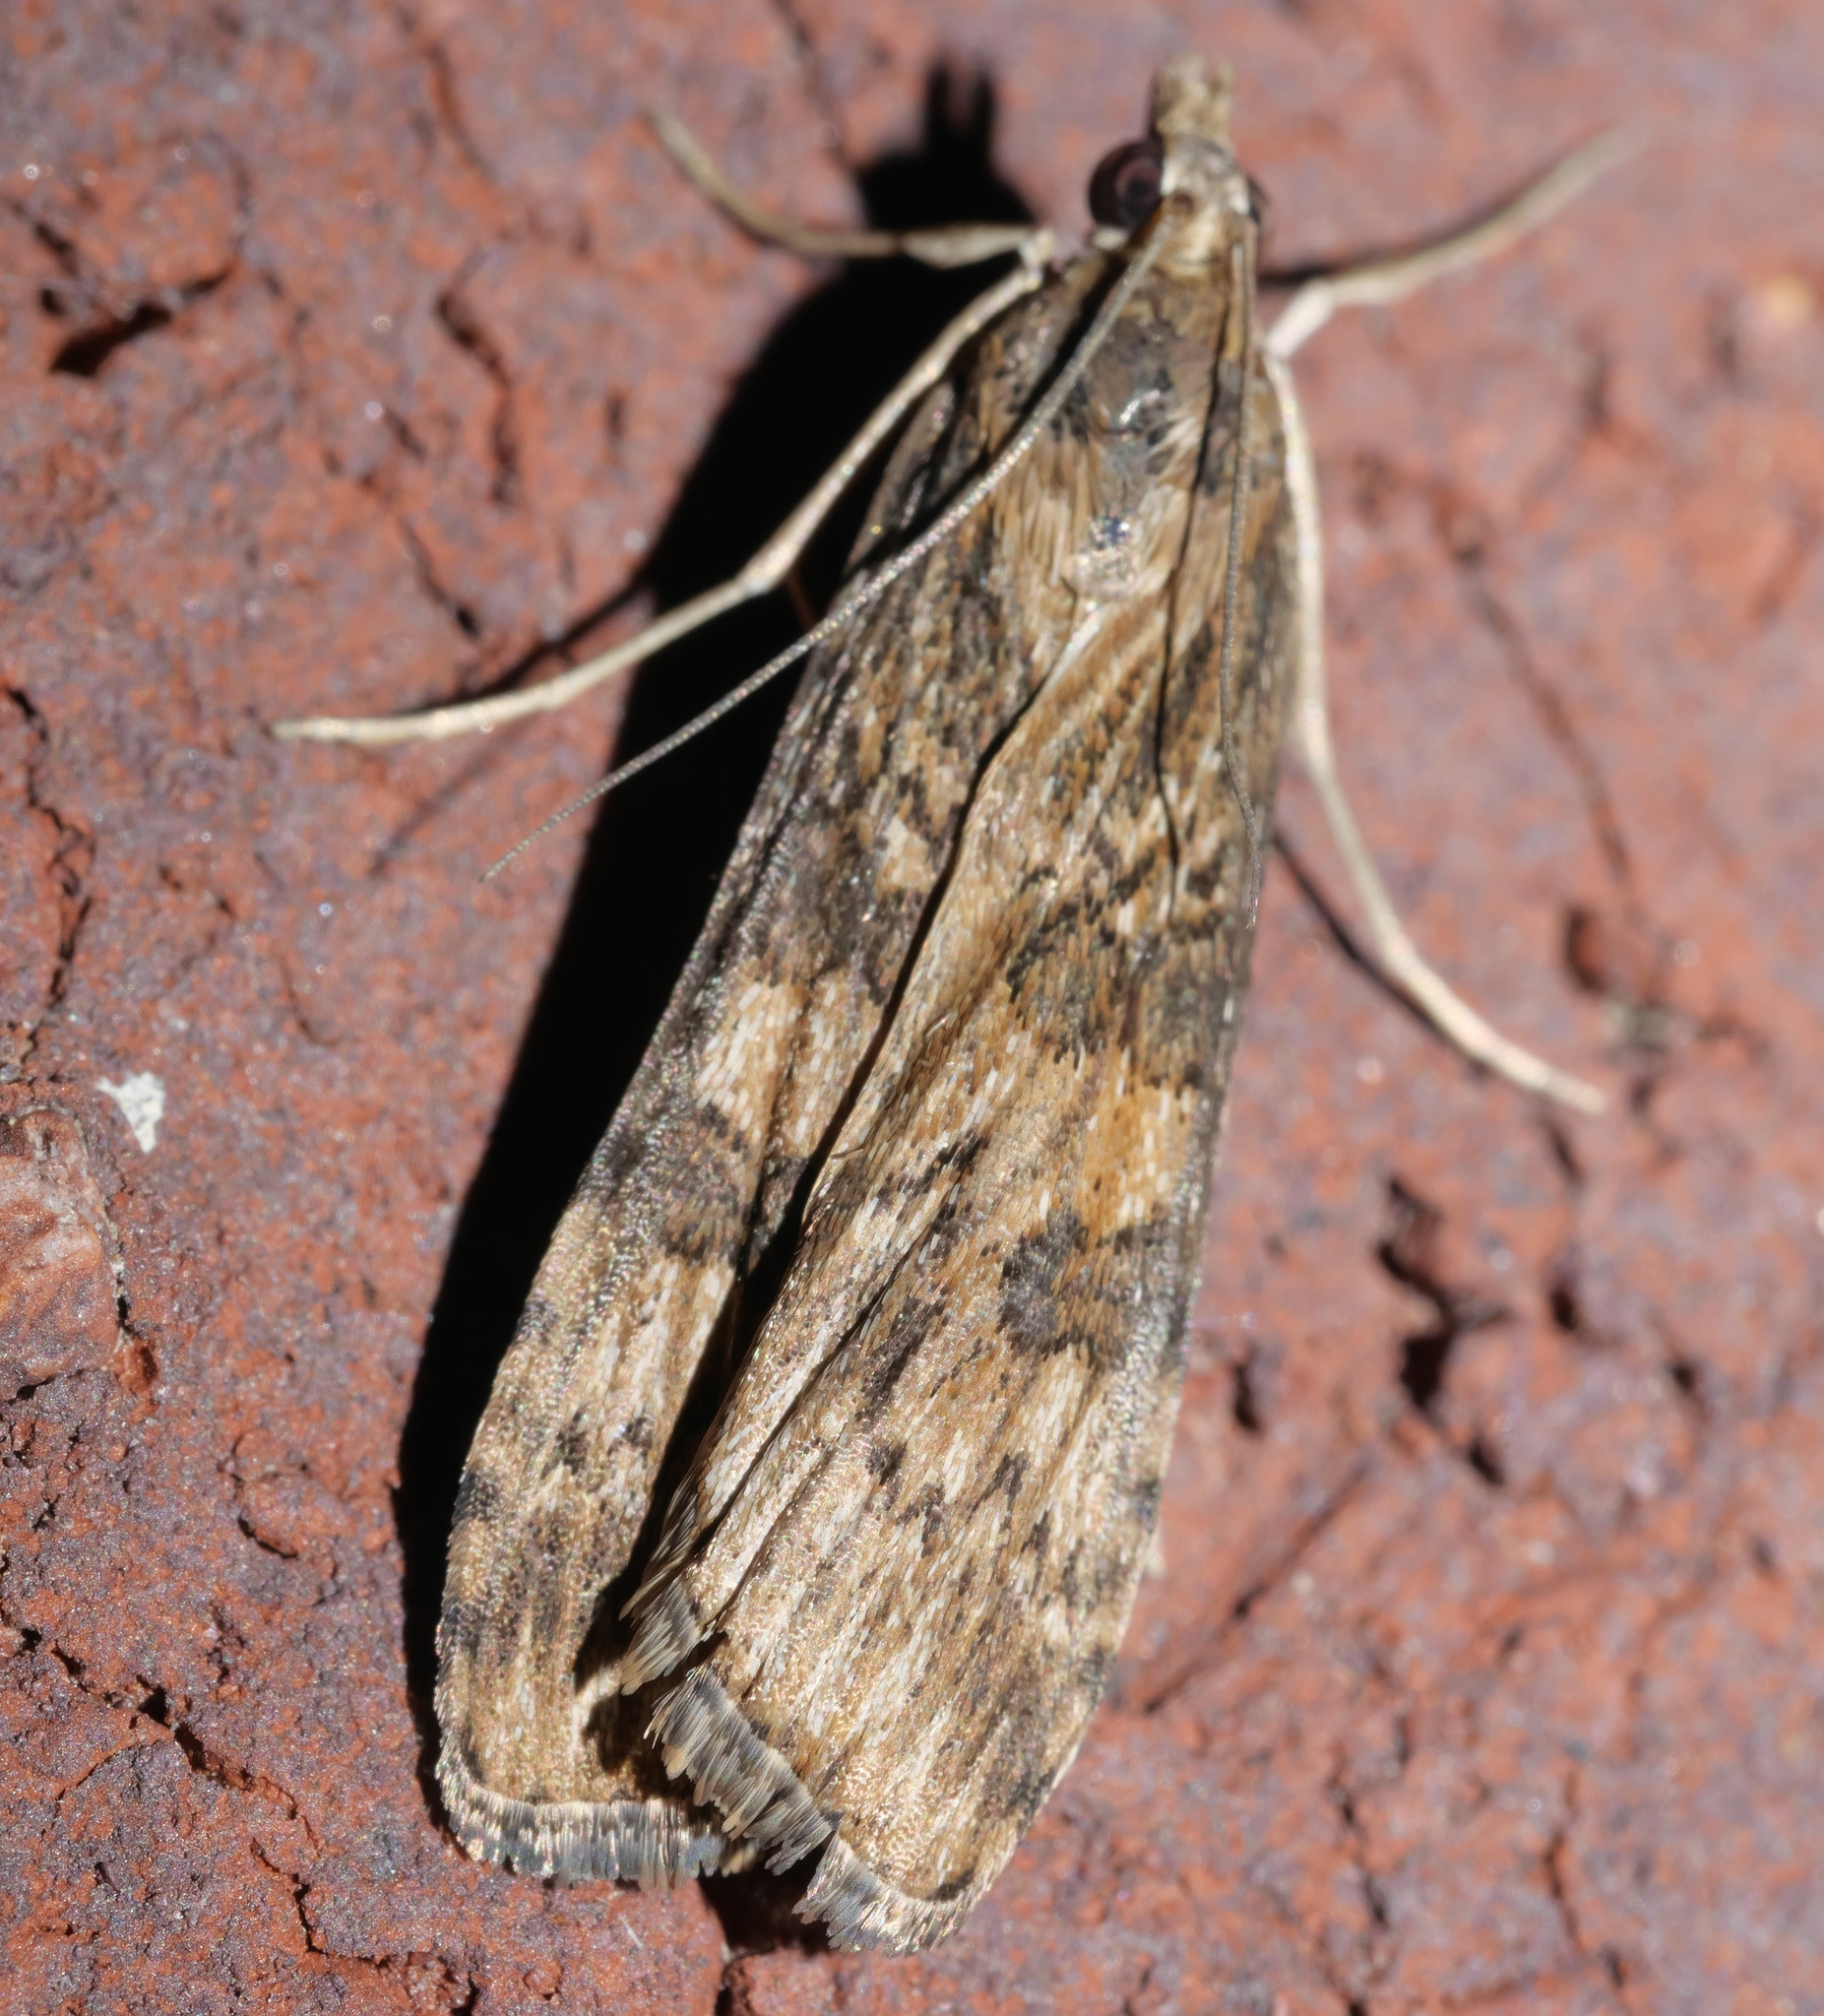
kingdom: Animalia
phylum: Arthropoda
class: Insecta
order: Lepidoptera
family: Crambidae
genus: Nomophila
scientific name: Nomophila nearctica
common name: American rush veneer
